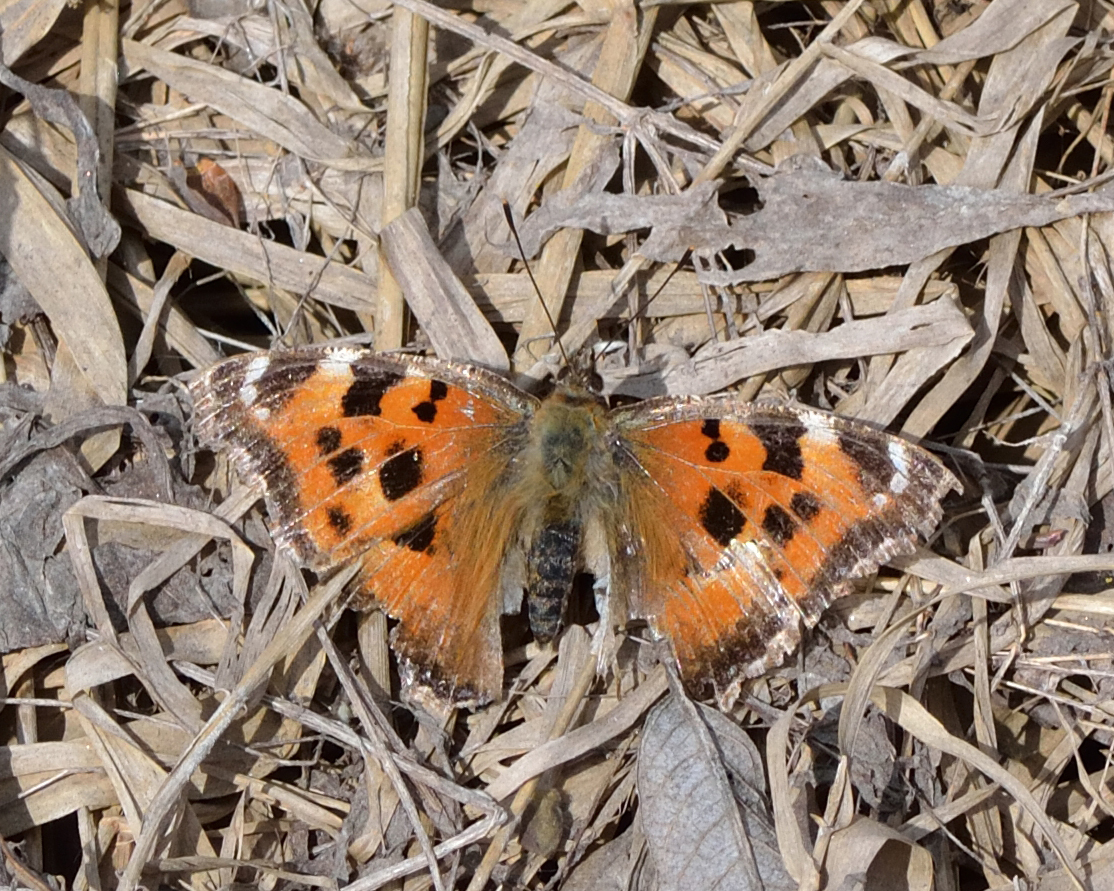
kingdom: Animalia
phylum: Arthropoda
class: Insecta
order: Lepidoptera
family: Nymphalidae
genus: Nymphalis
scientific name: Nymphalis xanthomelas
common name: Scarce tortoiseshell
